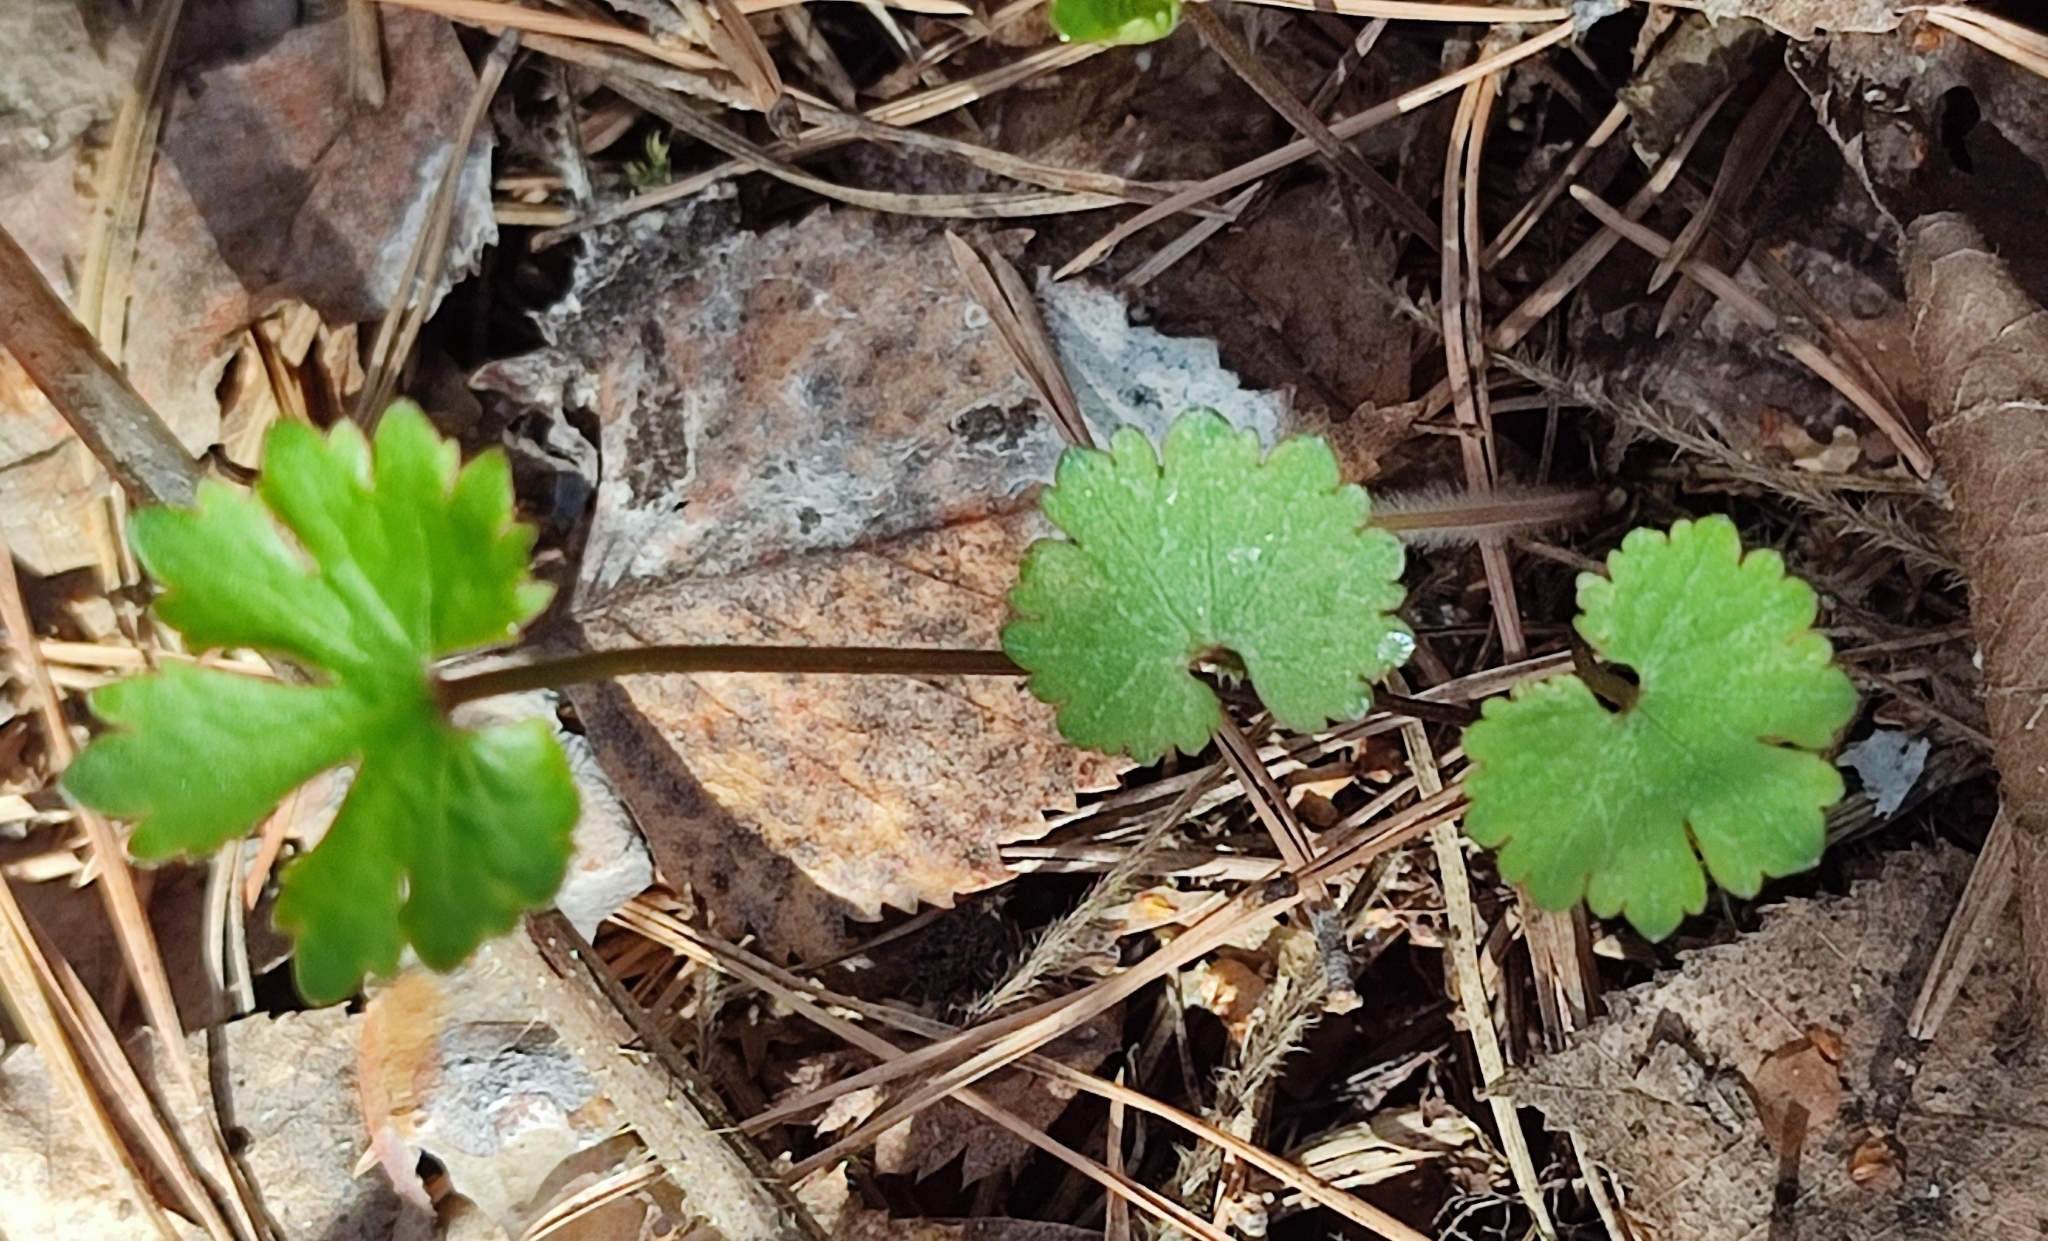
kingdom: Plantae
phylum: Tracheophyta
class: Magnoliopsida
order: Ranunculales
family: Ranunculaceae
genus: Ranunculus
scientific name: Ranunculus auricomus
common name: Goldilocks buttercup
